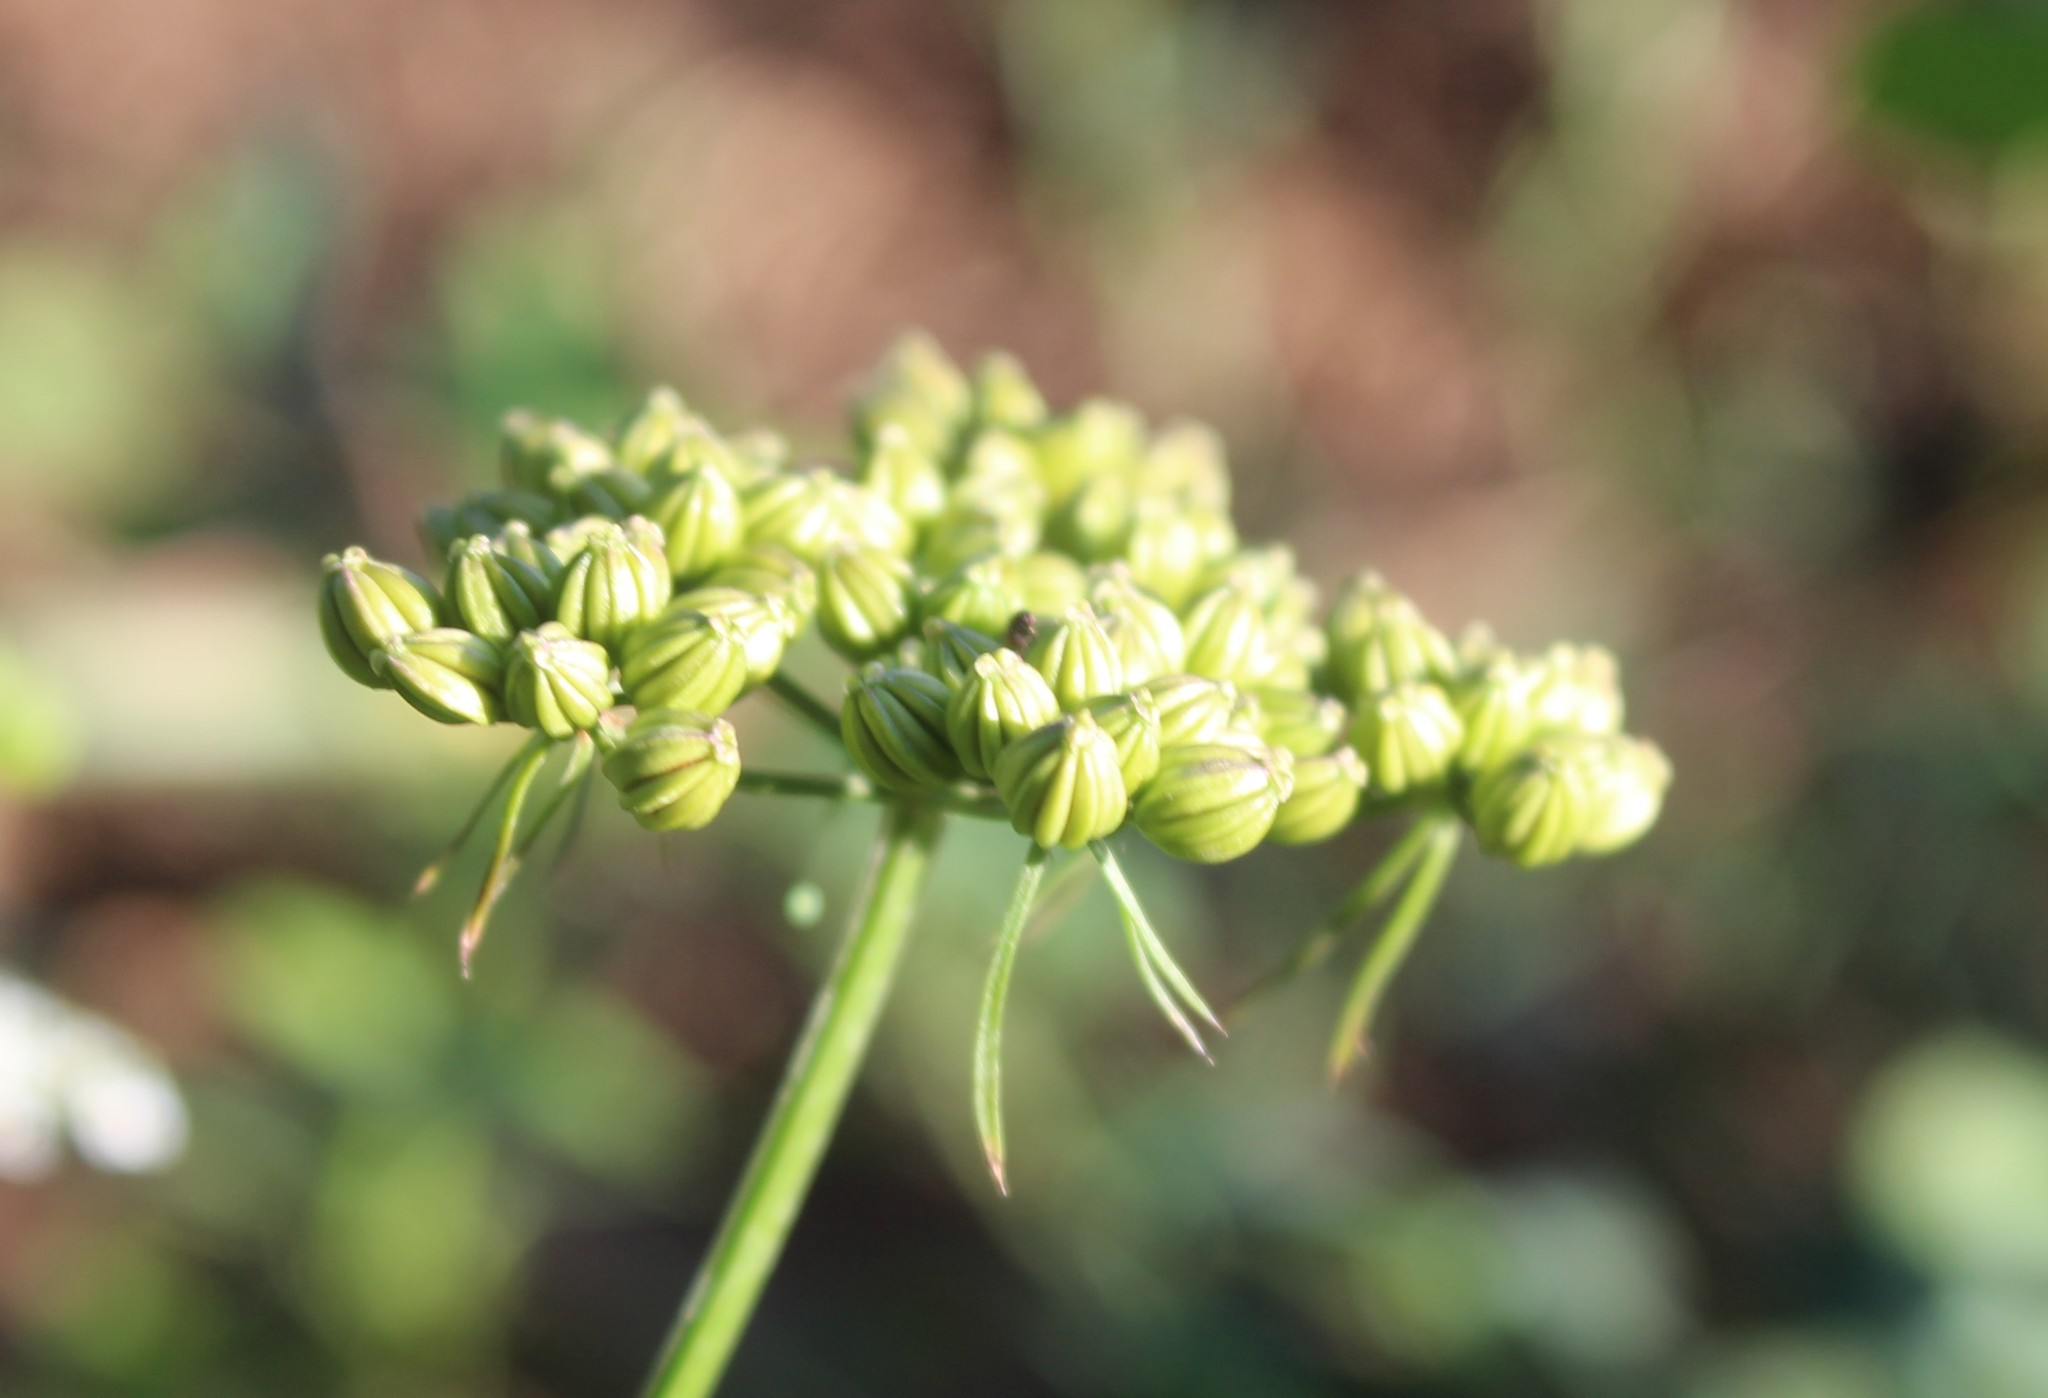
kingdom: Plantae
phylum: Tracheophyta
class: Magnoliopsida
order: Apiales
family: Apiaceae
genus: Aethusa
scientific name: Aethusa cynapium
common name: Fool's parsley
